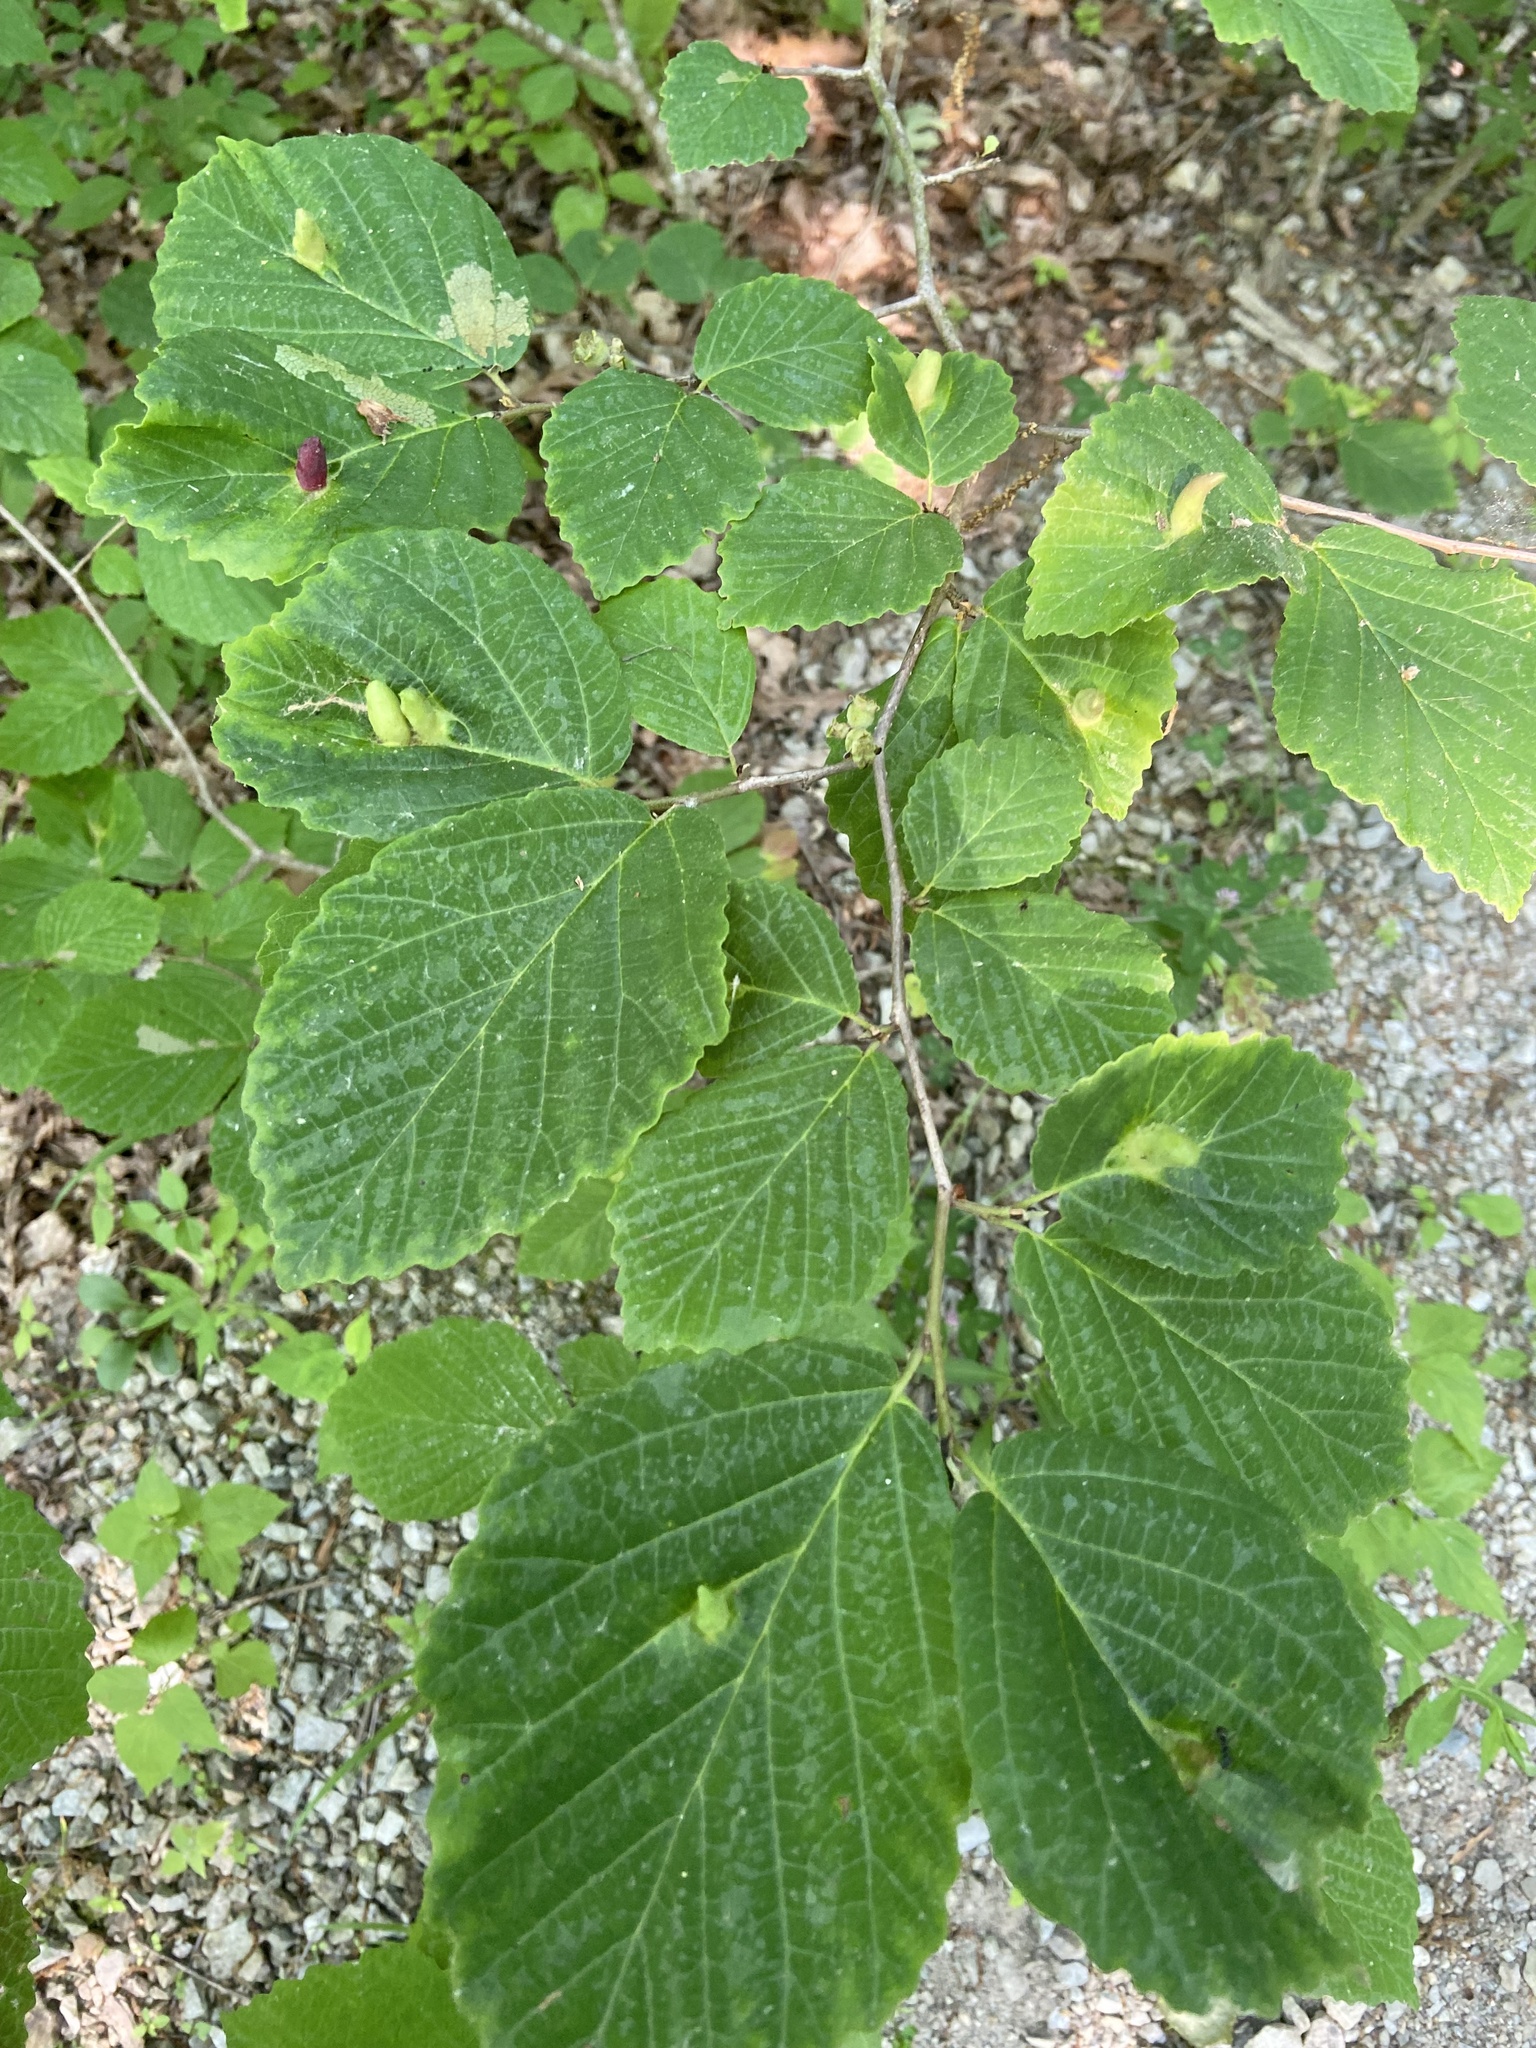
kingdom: Animalia
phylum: Arthropoda
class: Insecta
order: Hemiptera
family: Aphididae
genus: Hormaphis
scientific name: Hormaphis hamamelidis
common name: Witch-hazel cone gall aphid
